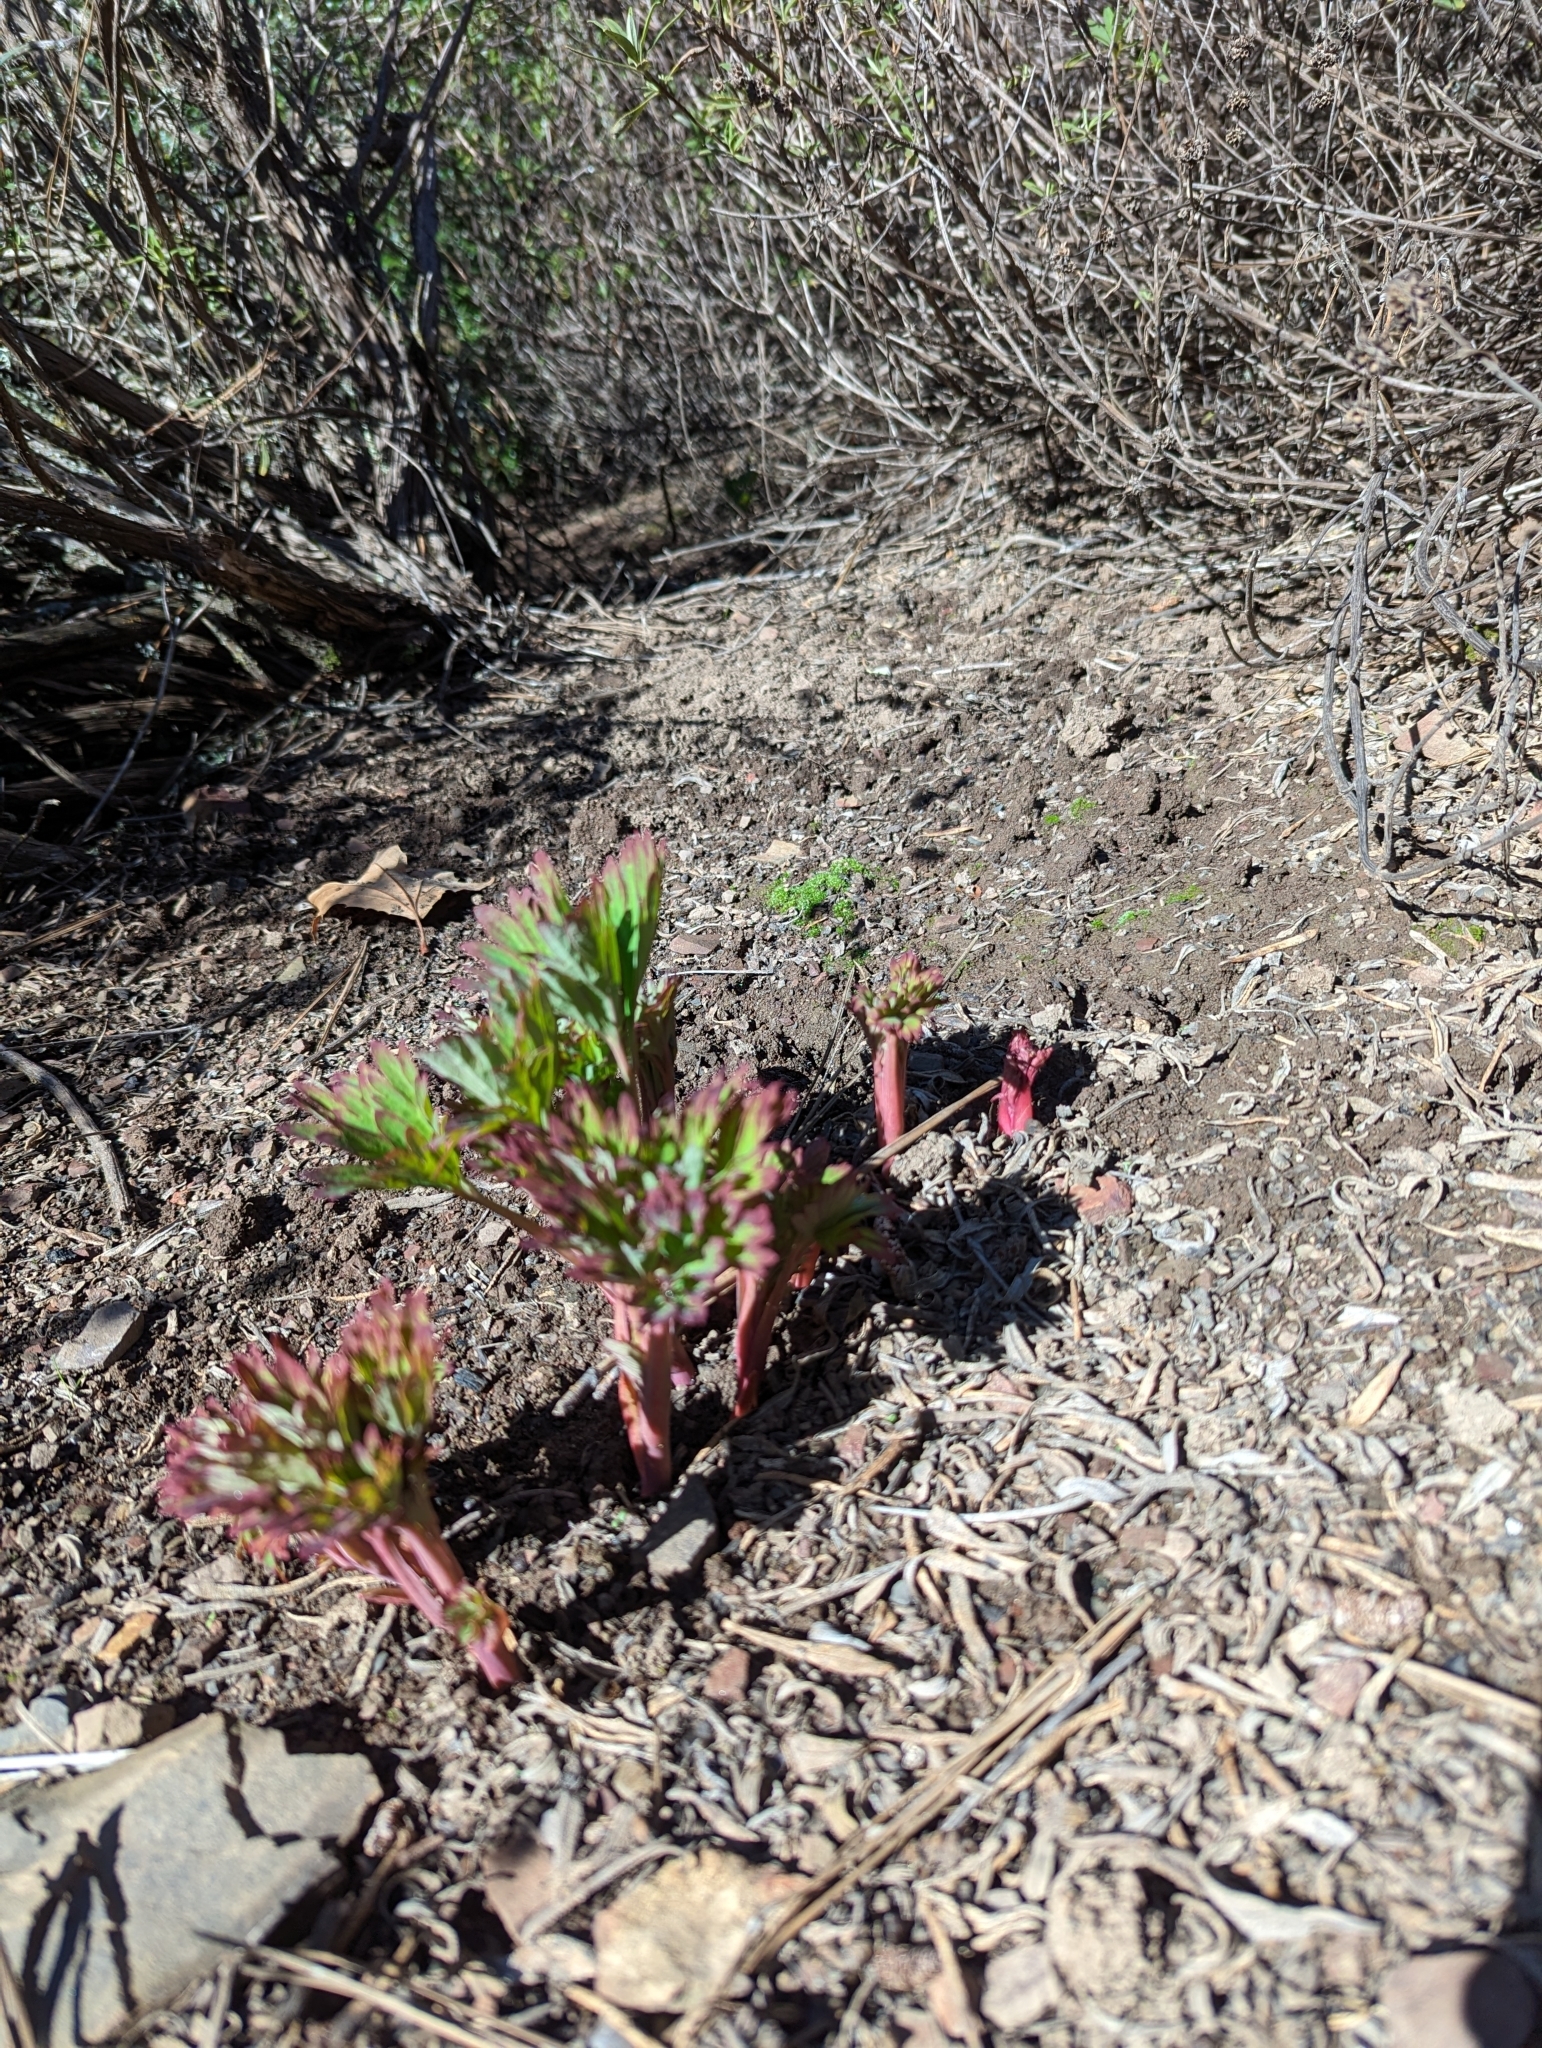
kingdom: Plantae
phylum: Tracheophyta
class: Magnoliopsida
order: Saxifragales
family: Paeoniaceae
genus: Paeonia
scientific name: Paeonia californica
